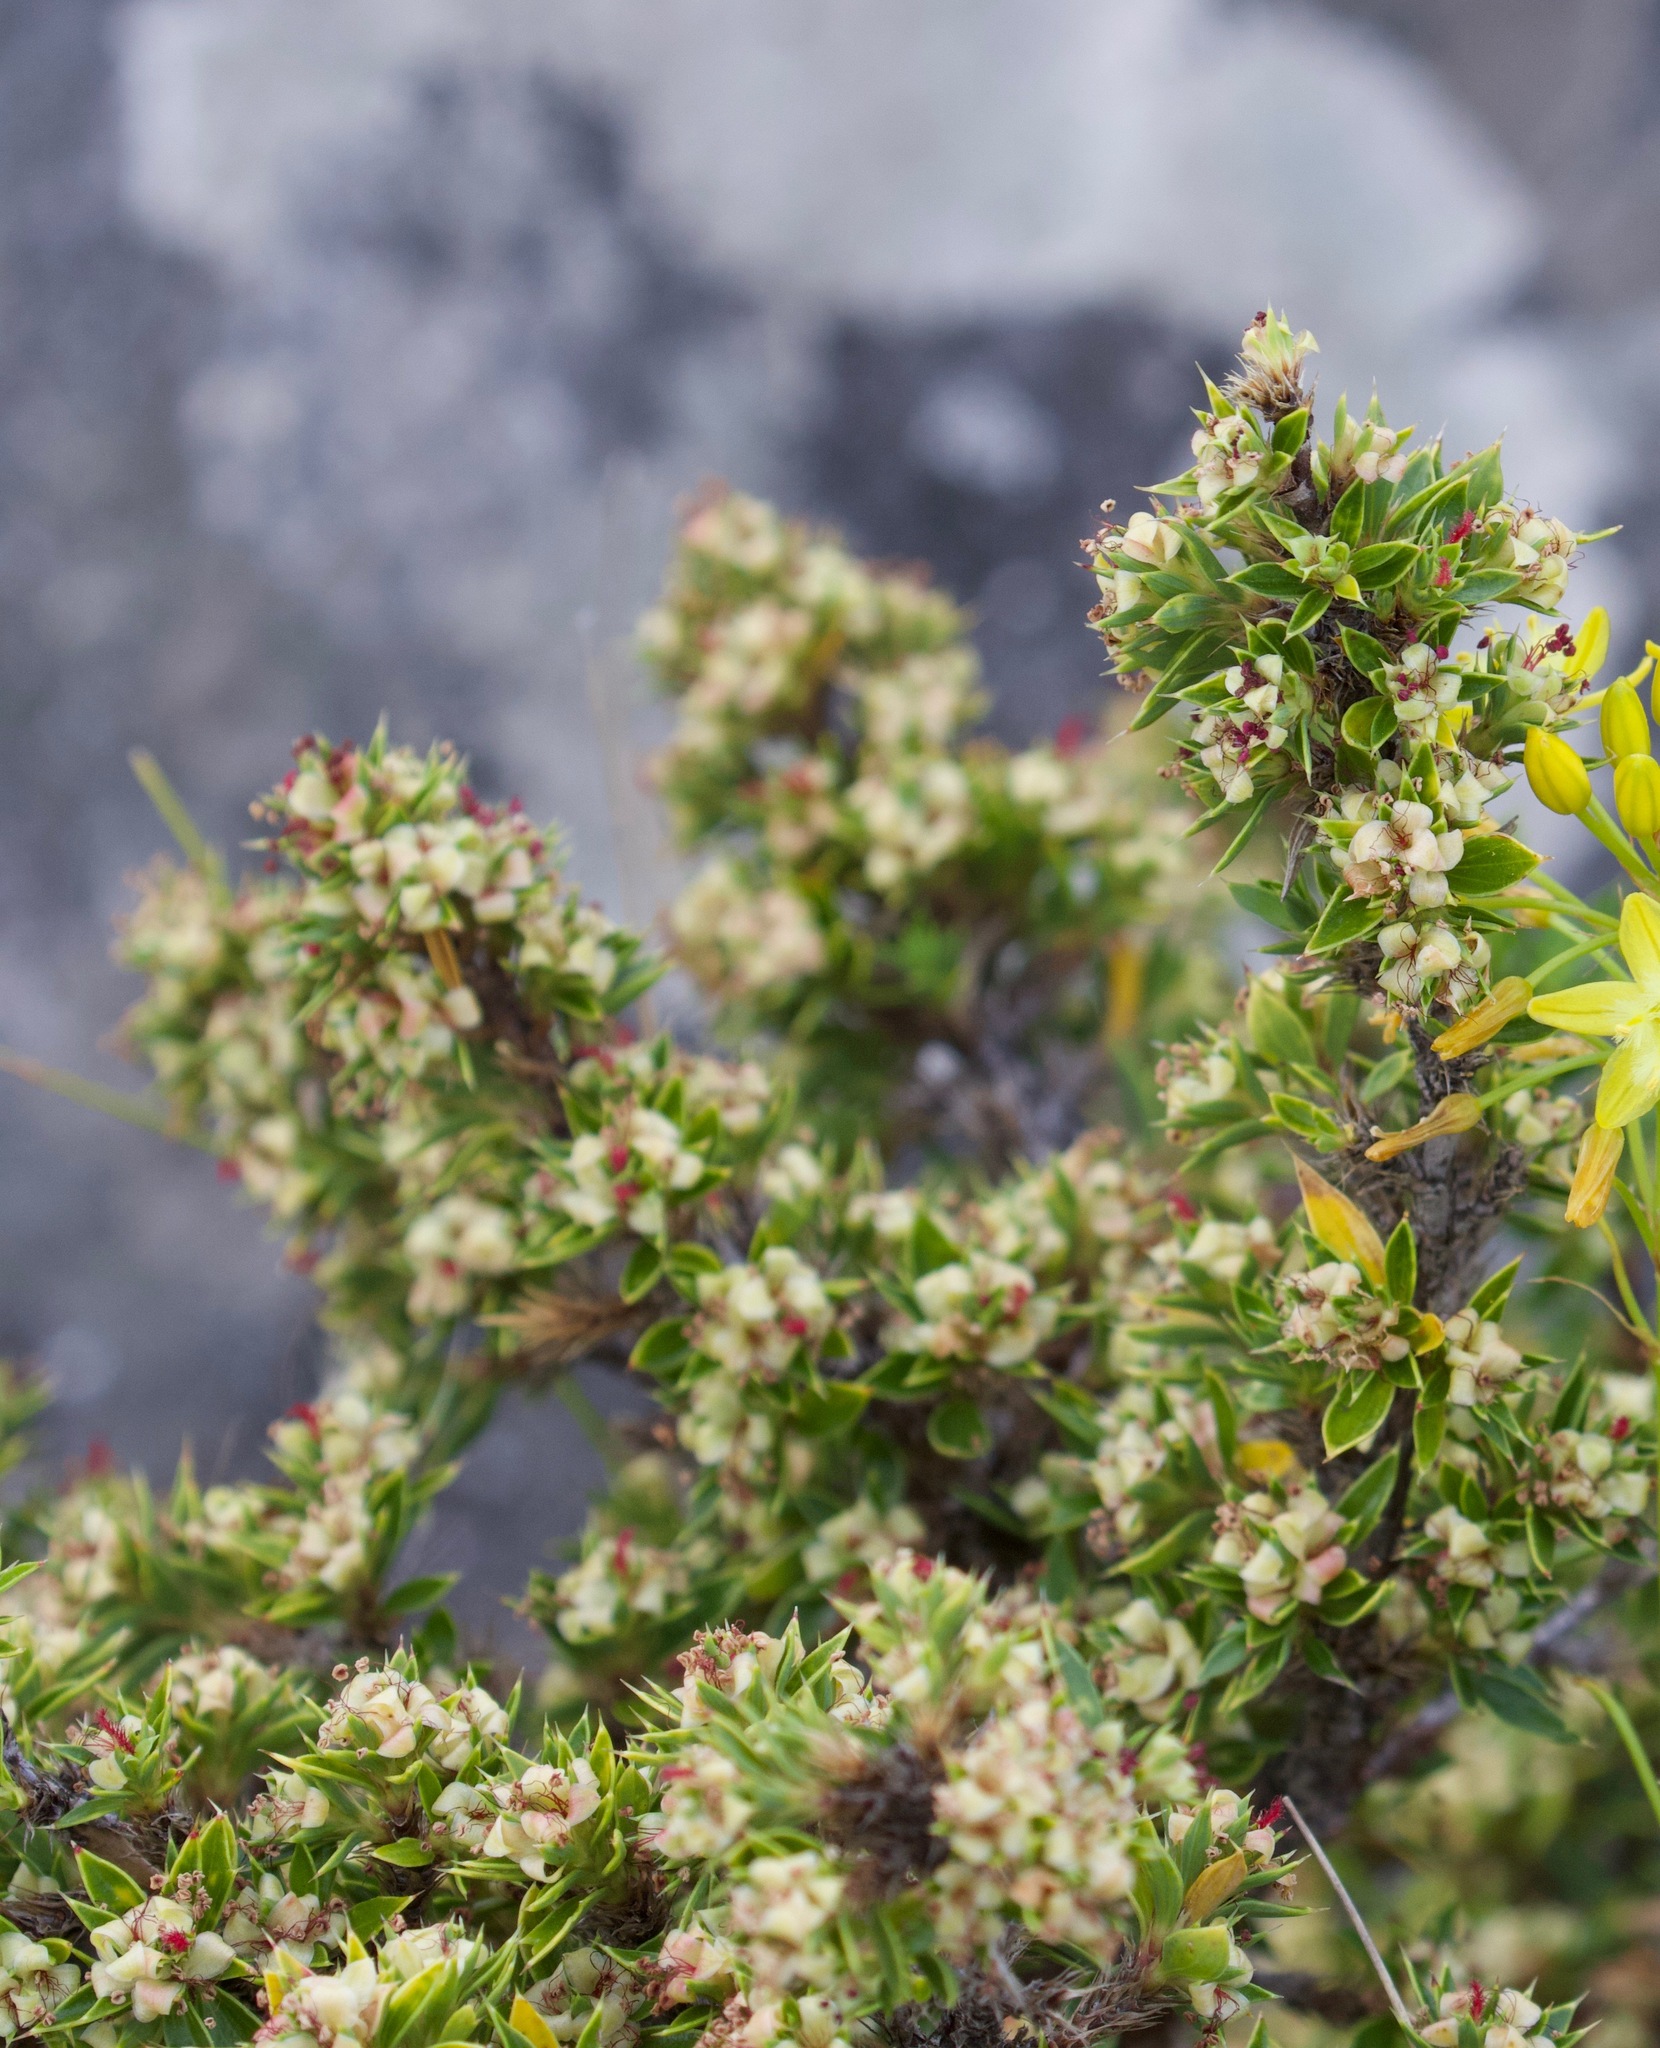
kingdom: Plantae
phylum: Tracheophyta
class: Magnoliopsida
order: Rosales
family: Rosaceae
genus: Cliffortia
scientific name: Cliffortia tridentata
